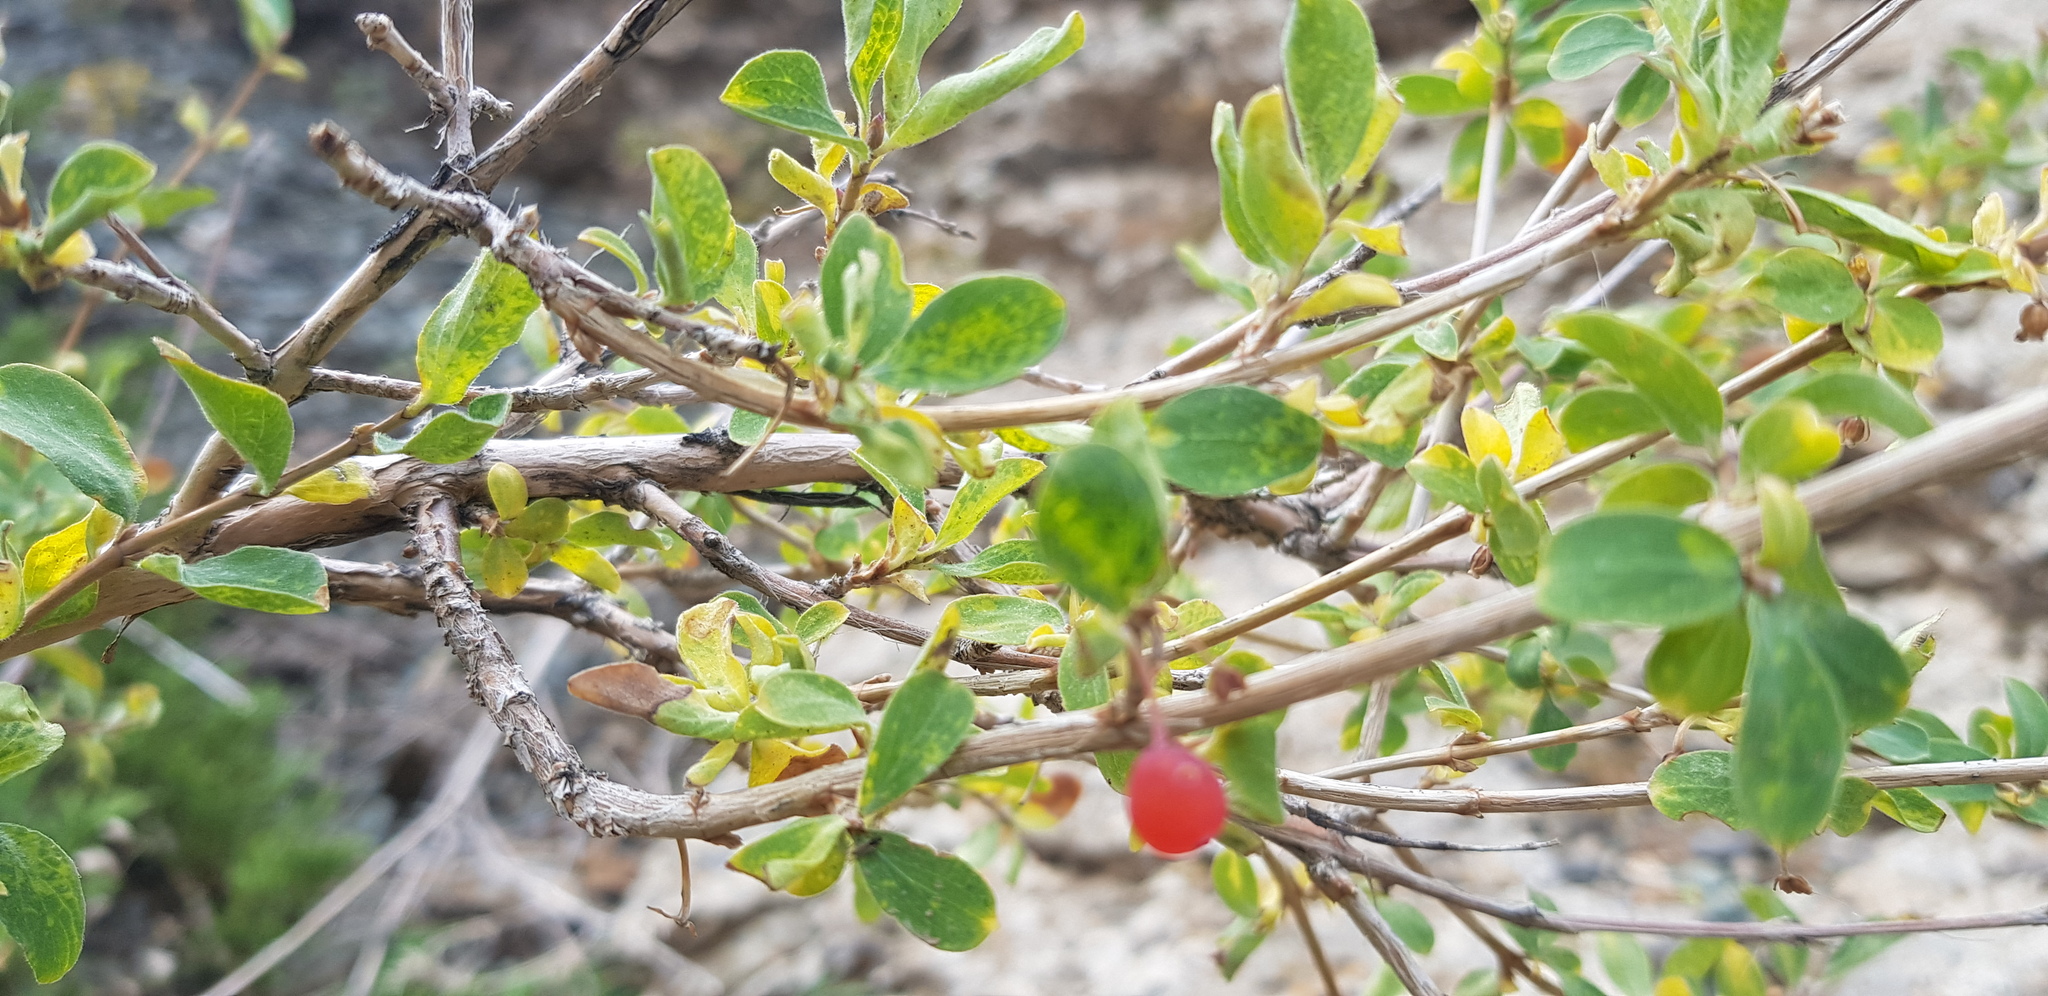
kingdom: Plantae
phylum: Tracheophyta
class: Magnoliopsida
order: Dipsacales
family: Caprifoliaceae
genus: Lonicera
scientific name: Lonicera microphylla
